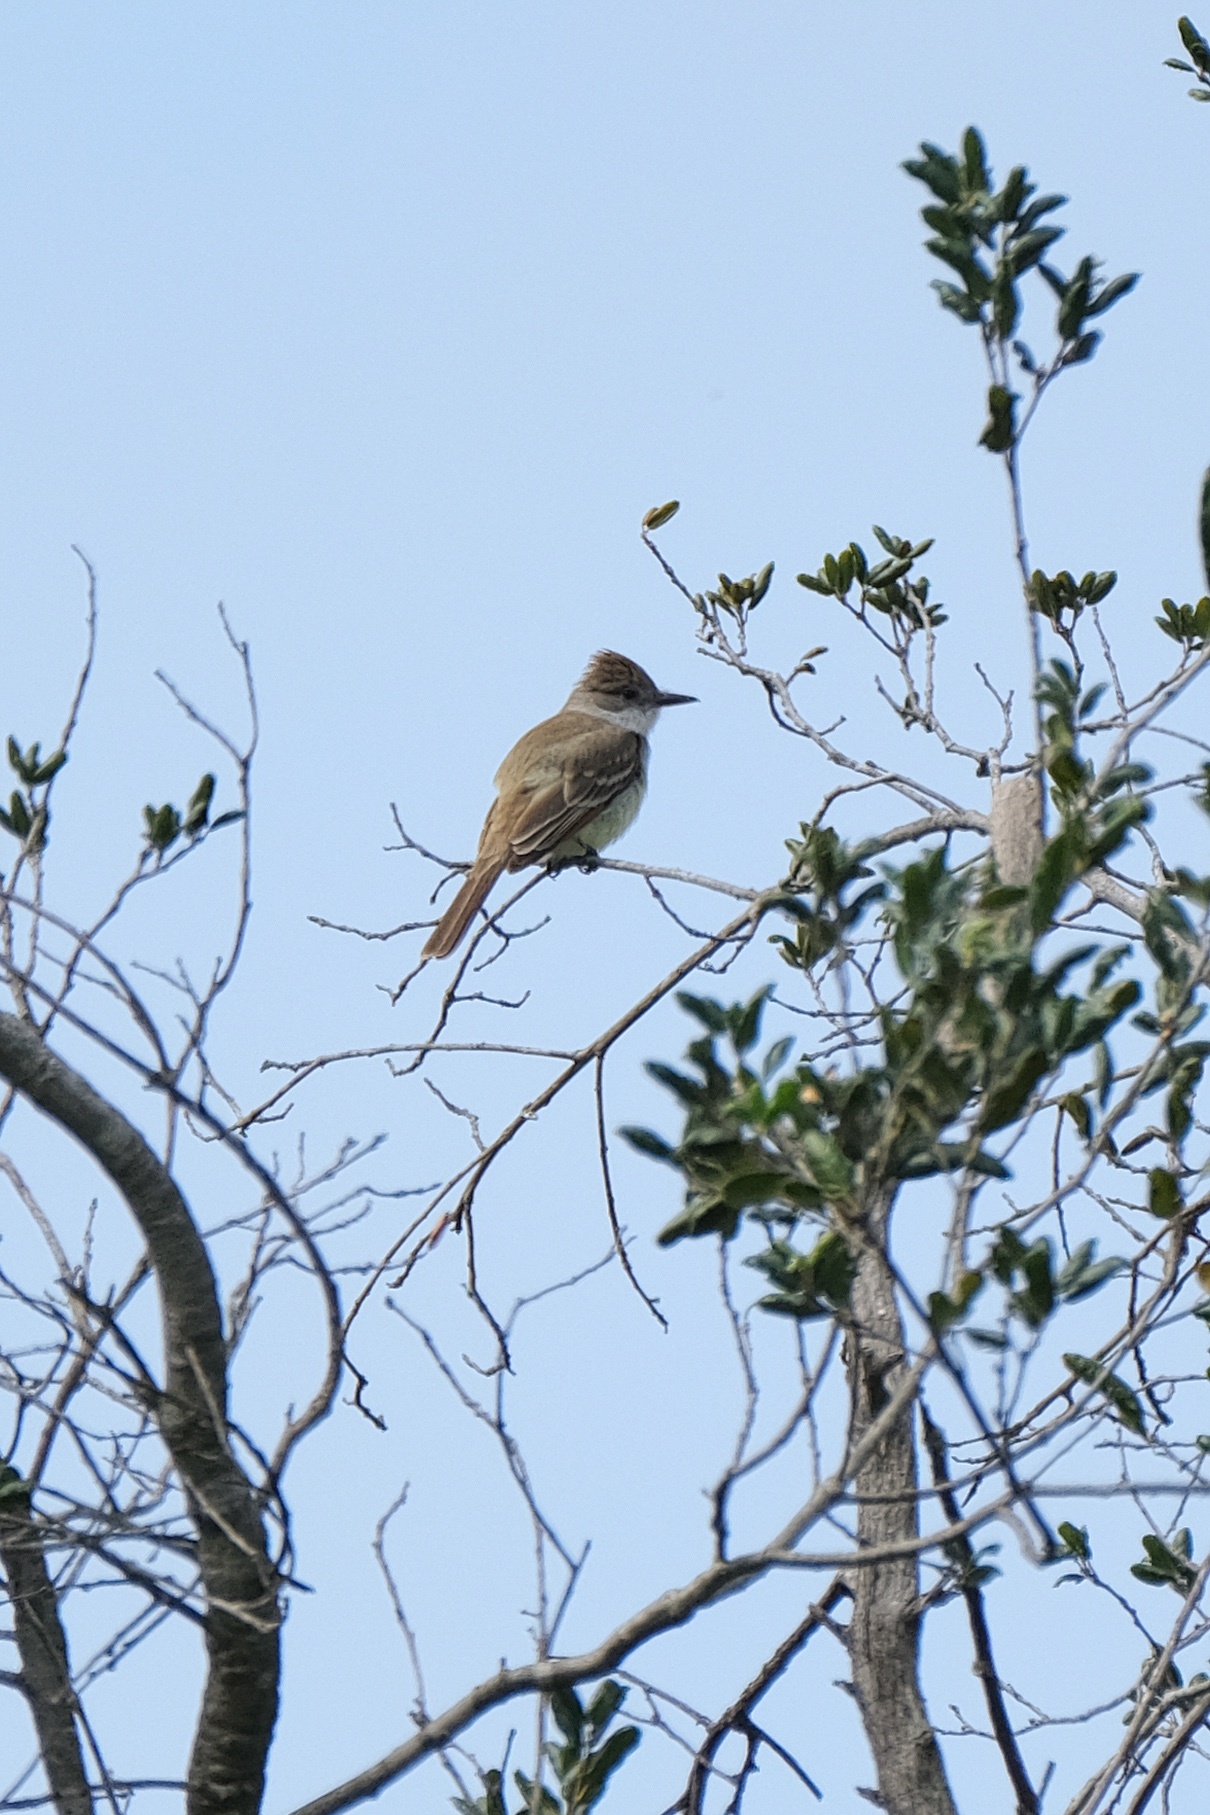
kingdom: Animalia
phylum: Chordata
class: Aves
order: Passeriformes
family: Tyrannidae
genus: Myiarchus
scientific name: Myiarchus cinerascens
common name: Ash-throated flycatcher
